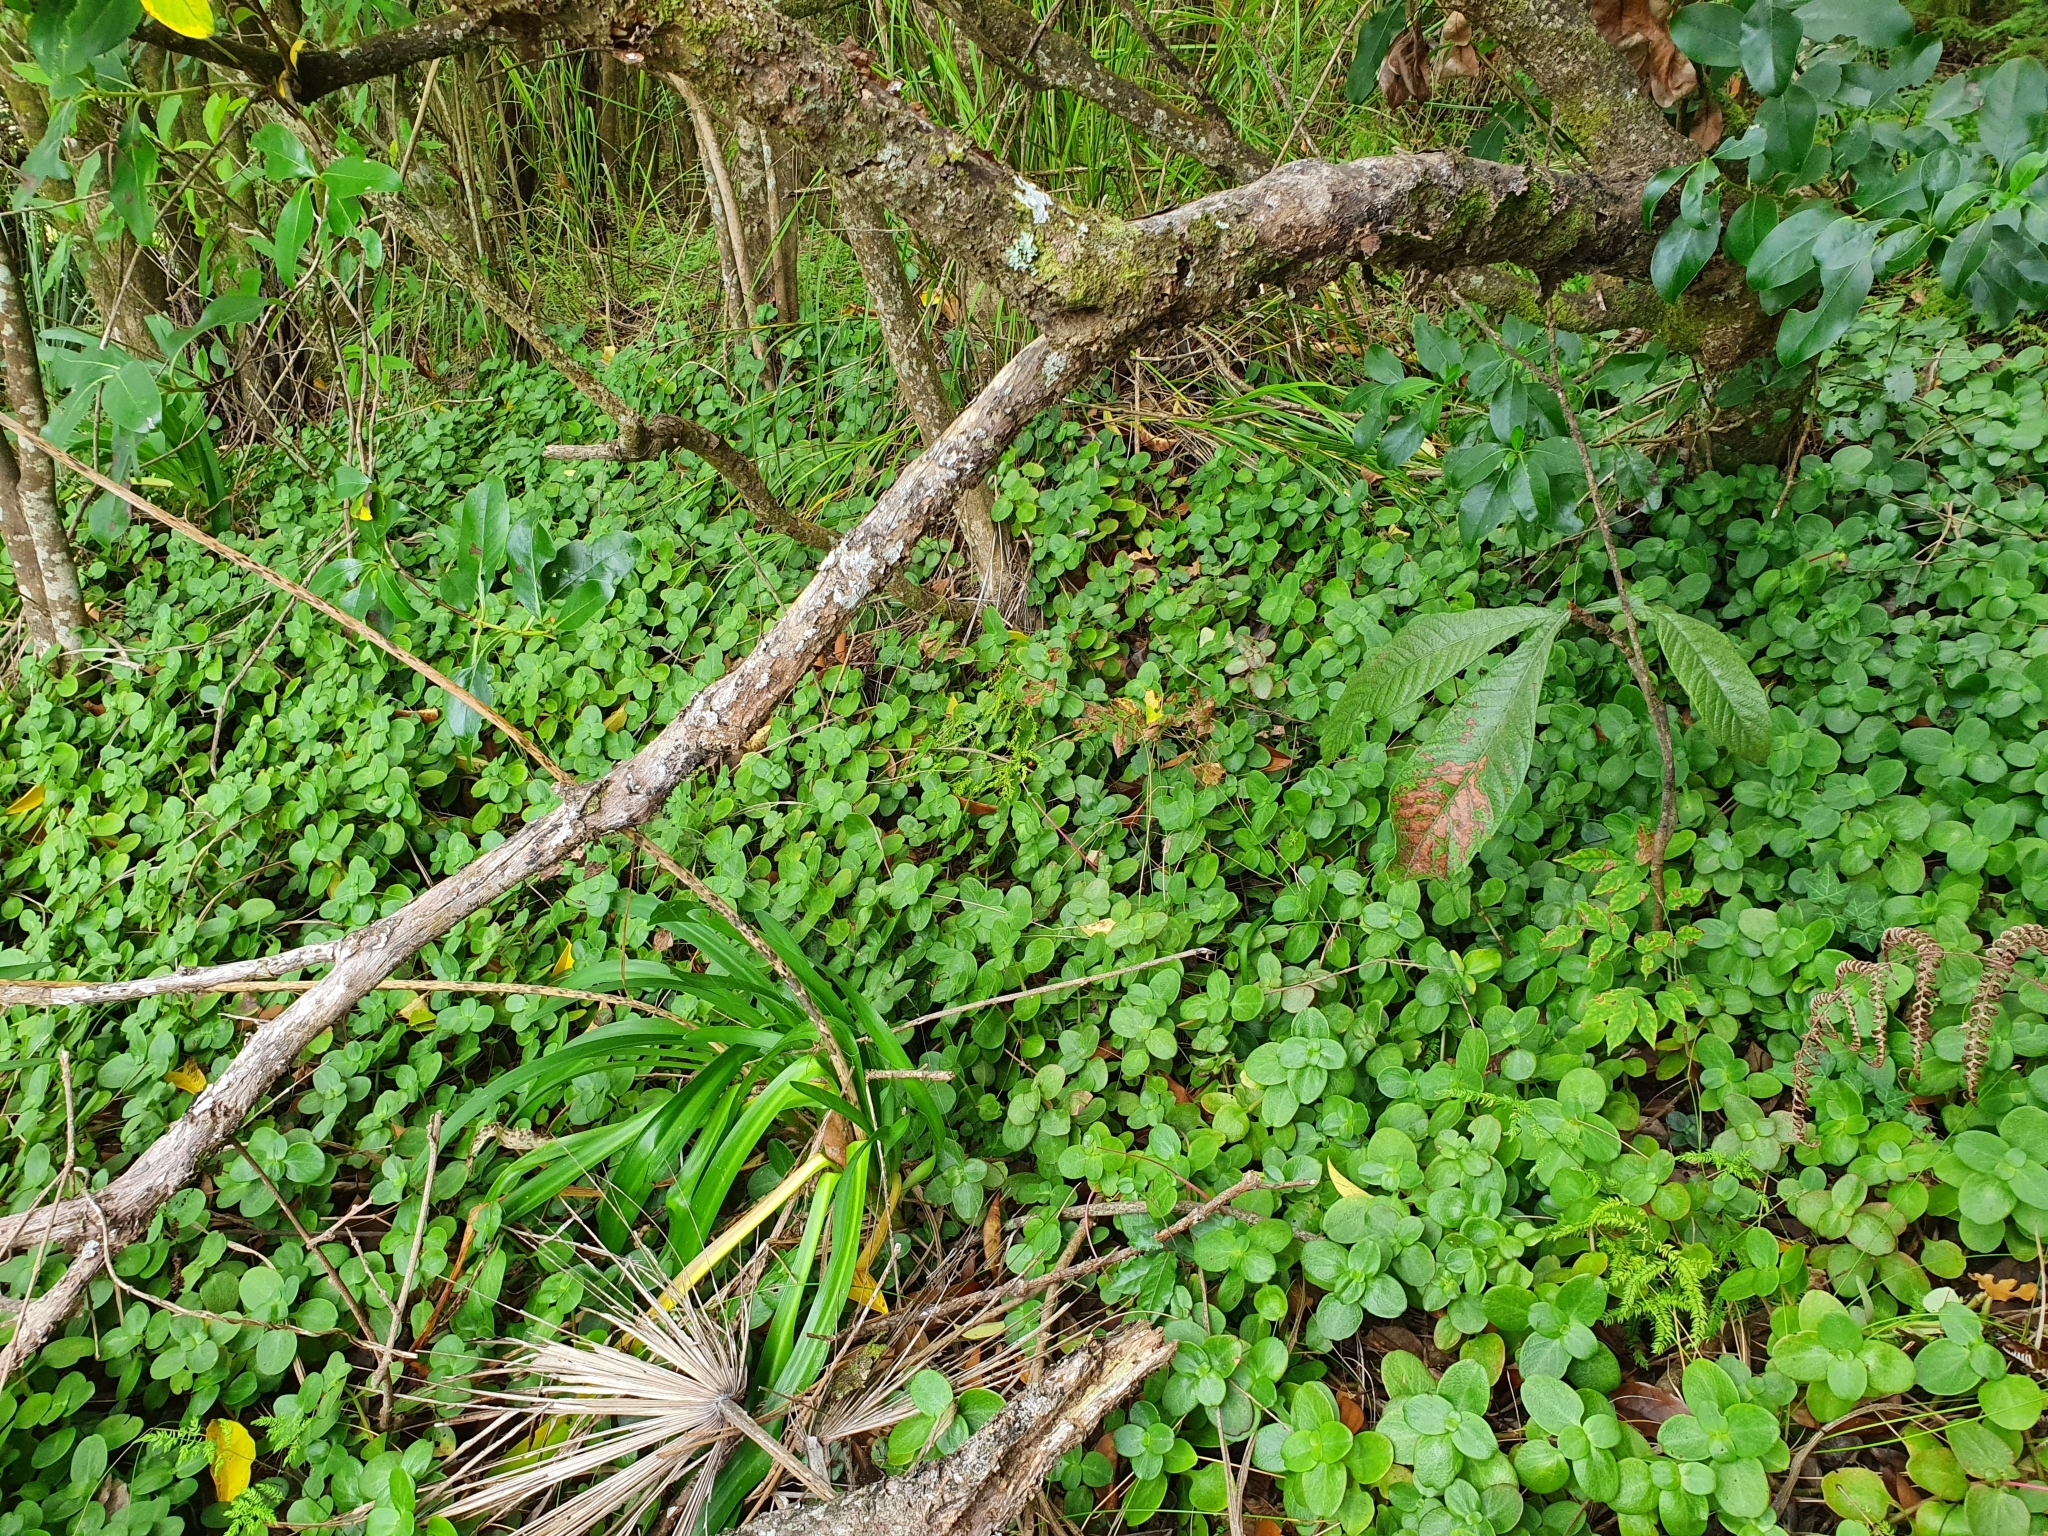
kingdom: Plantae
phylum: Tracheophyta
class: Magnoliopsida
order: Saxifragales
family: Crassulaceae
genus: Crassula
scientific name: Crassula multicava
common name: Cape province pygmyweed
